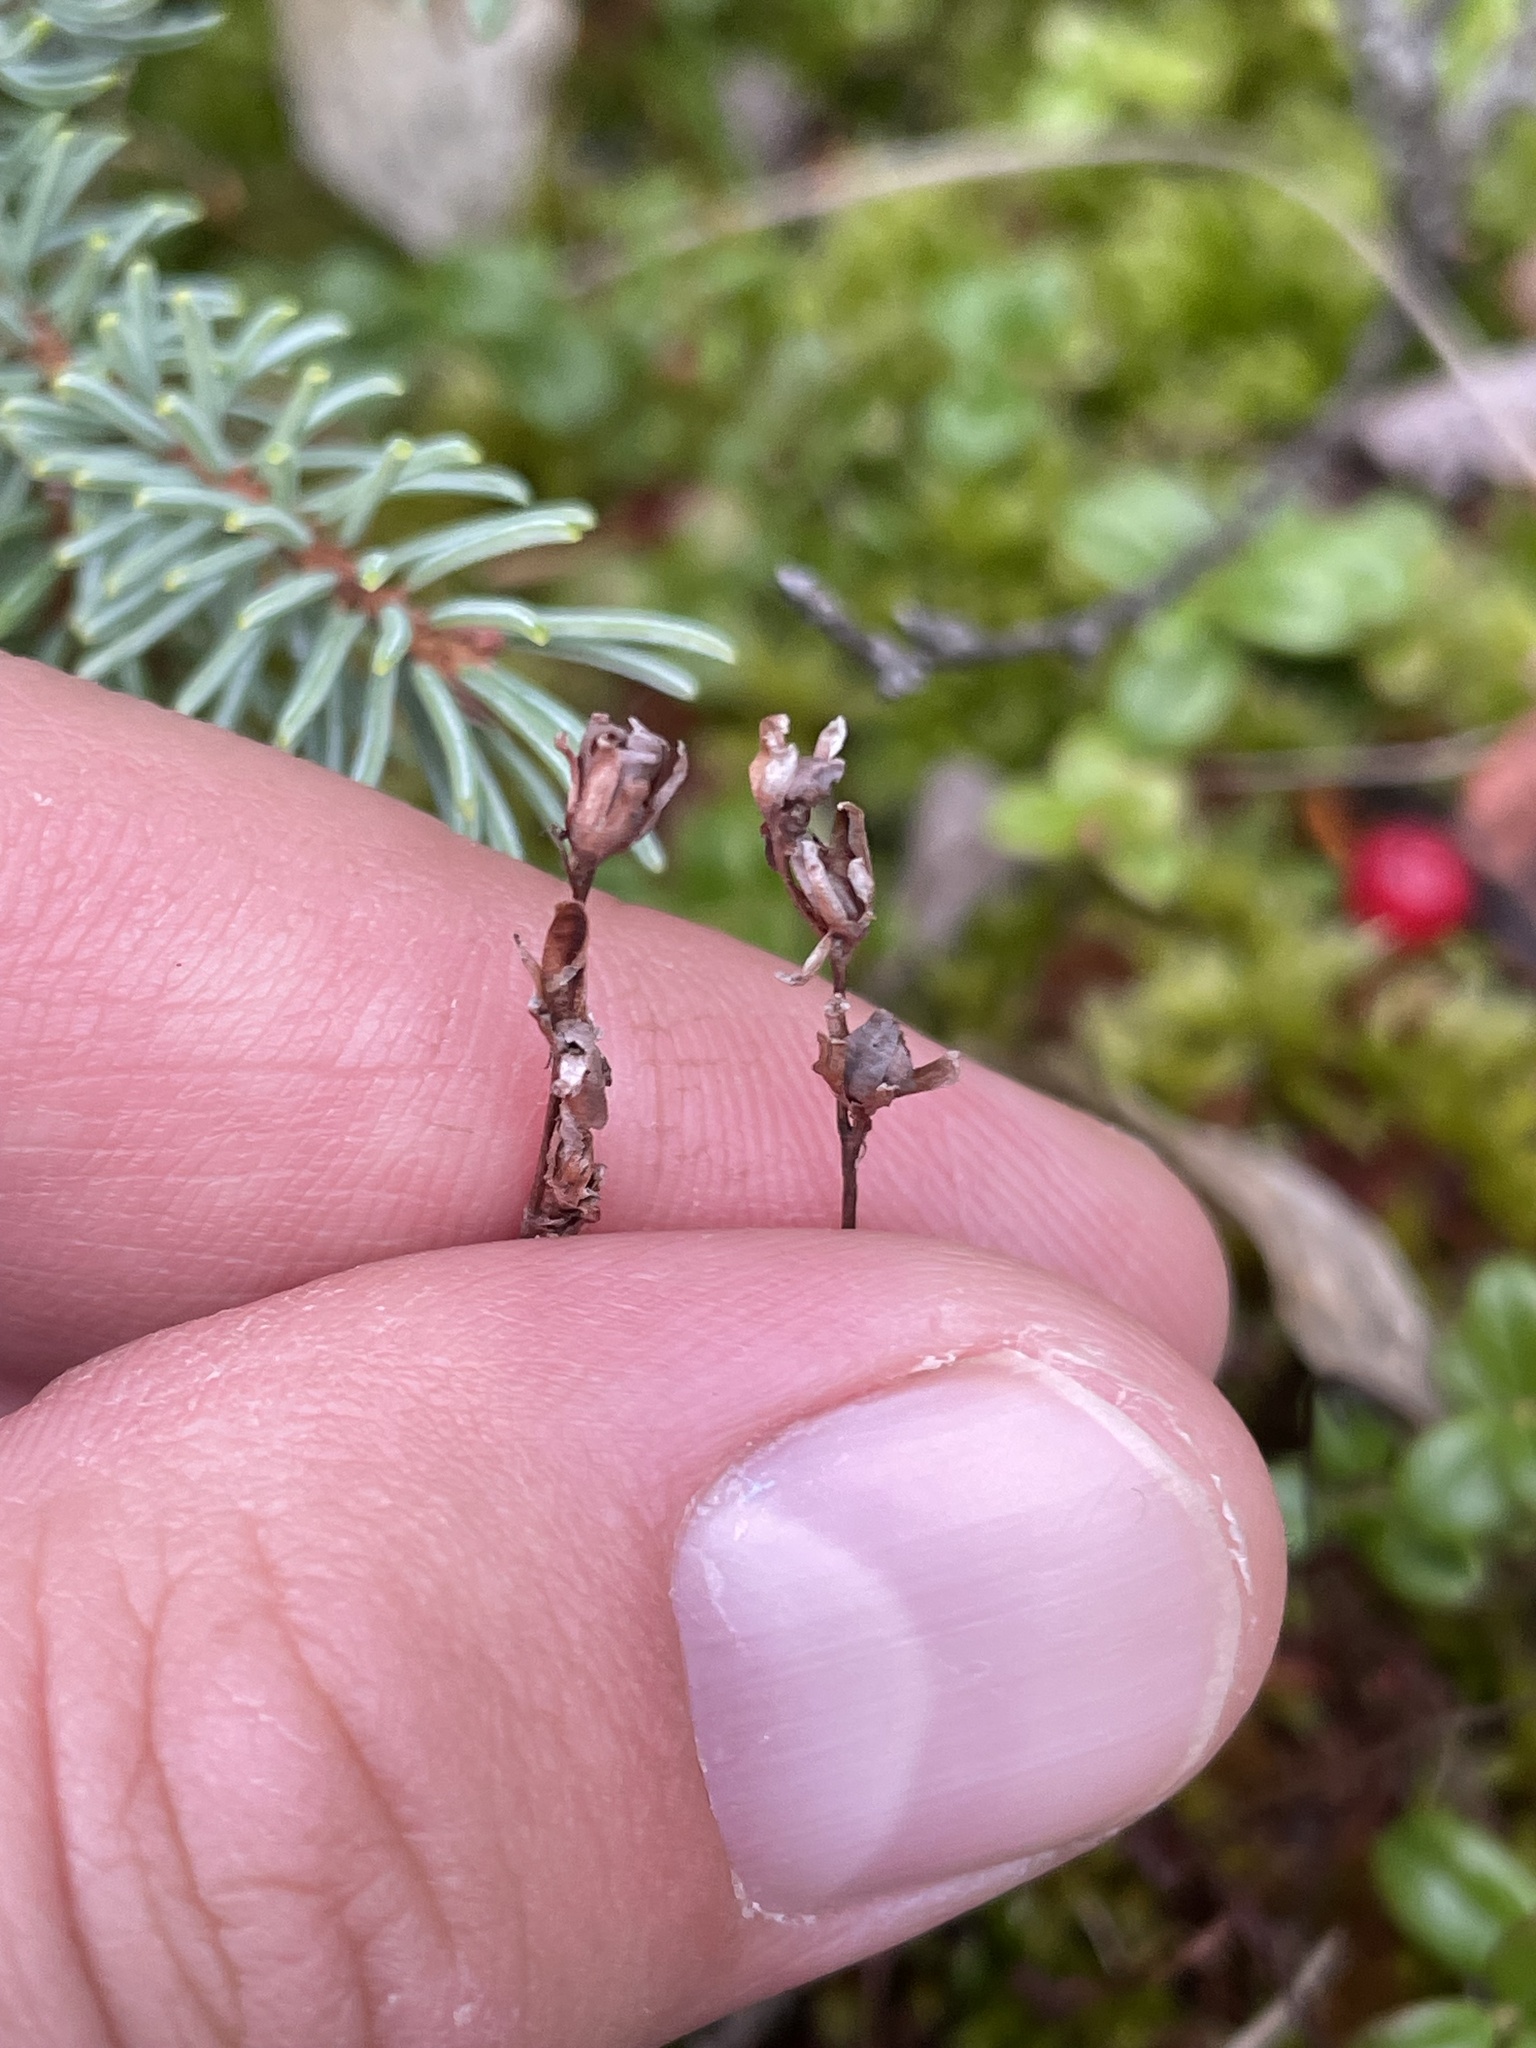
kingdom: Plantae
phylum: Tracheophyta
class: Magnoliopsida
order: Caryophyllales
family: Droseraceae
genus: Drosera
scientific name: Drosera rotundifolia
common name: Round-leaved sundew
